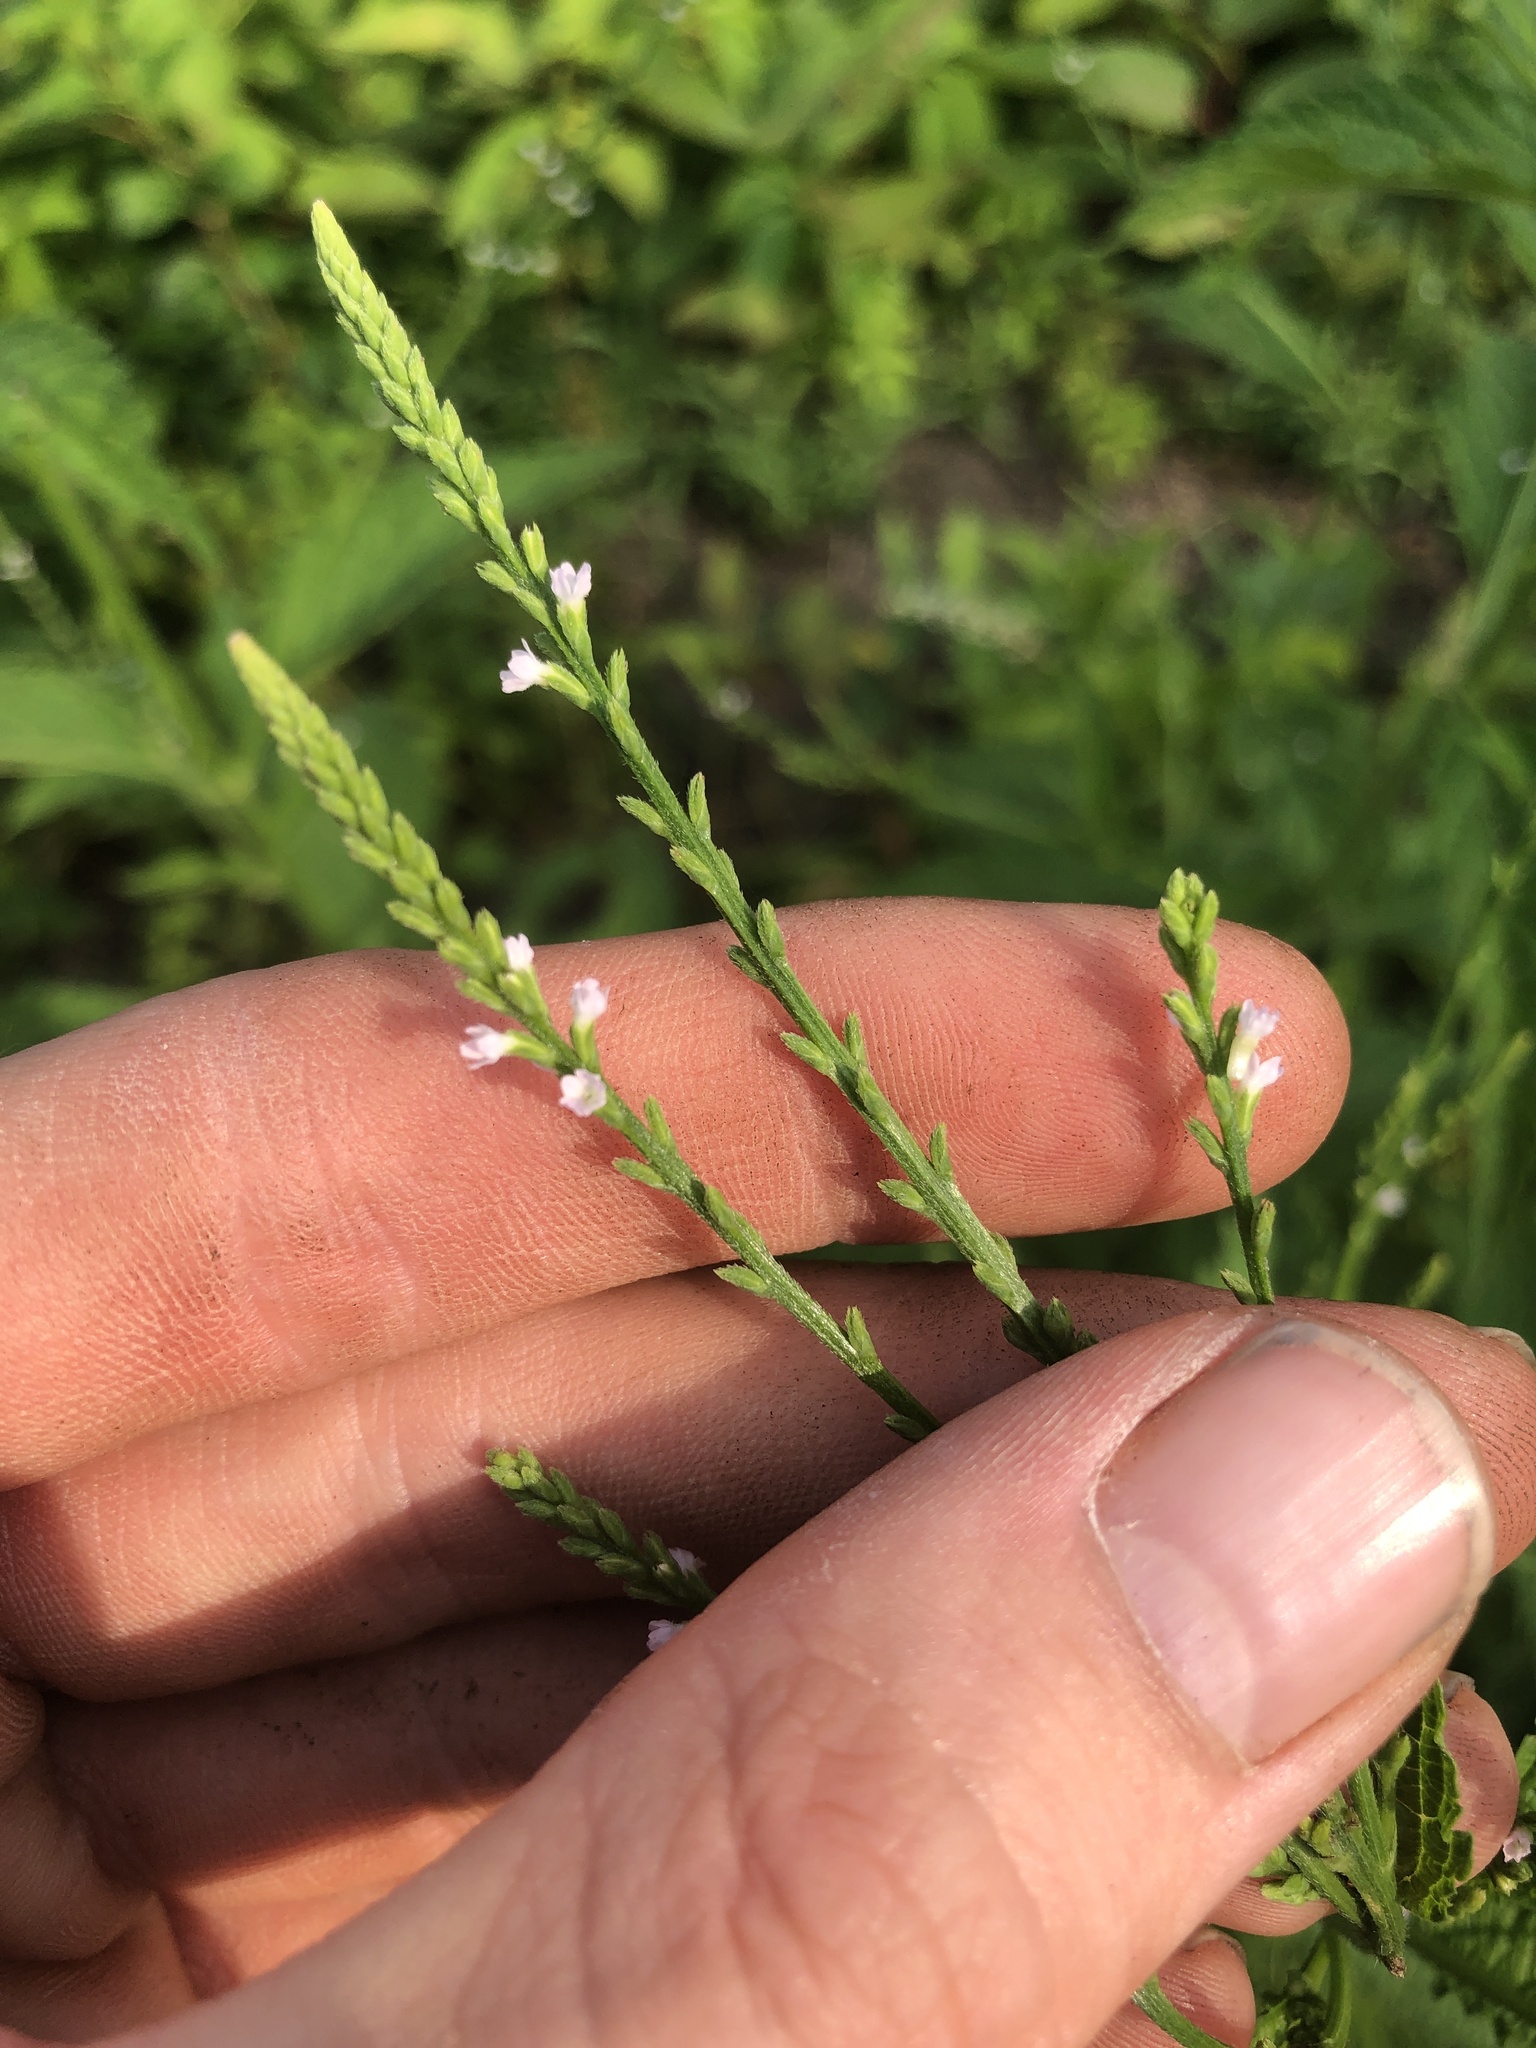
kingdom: Plantae
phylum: Tracheophyta
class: Magnoliopsida
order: Lamiales
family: Verbenaceae
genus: Verbena
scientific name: Verbena urticifolia
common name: Nettle-leaved vervain
